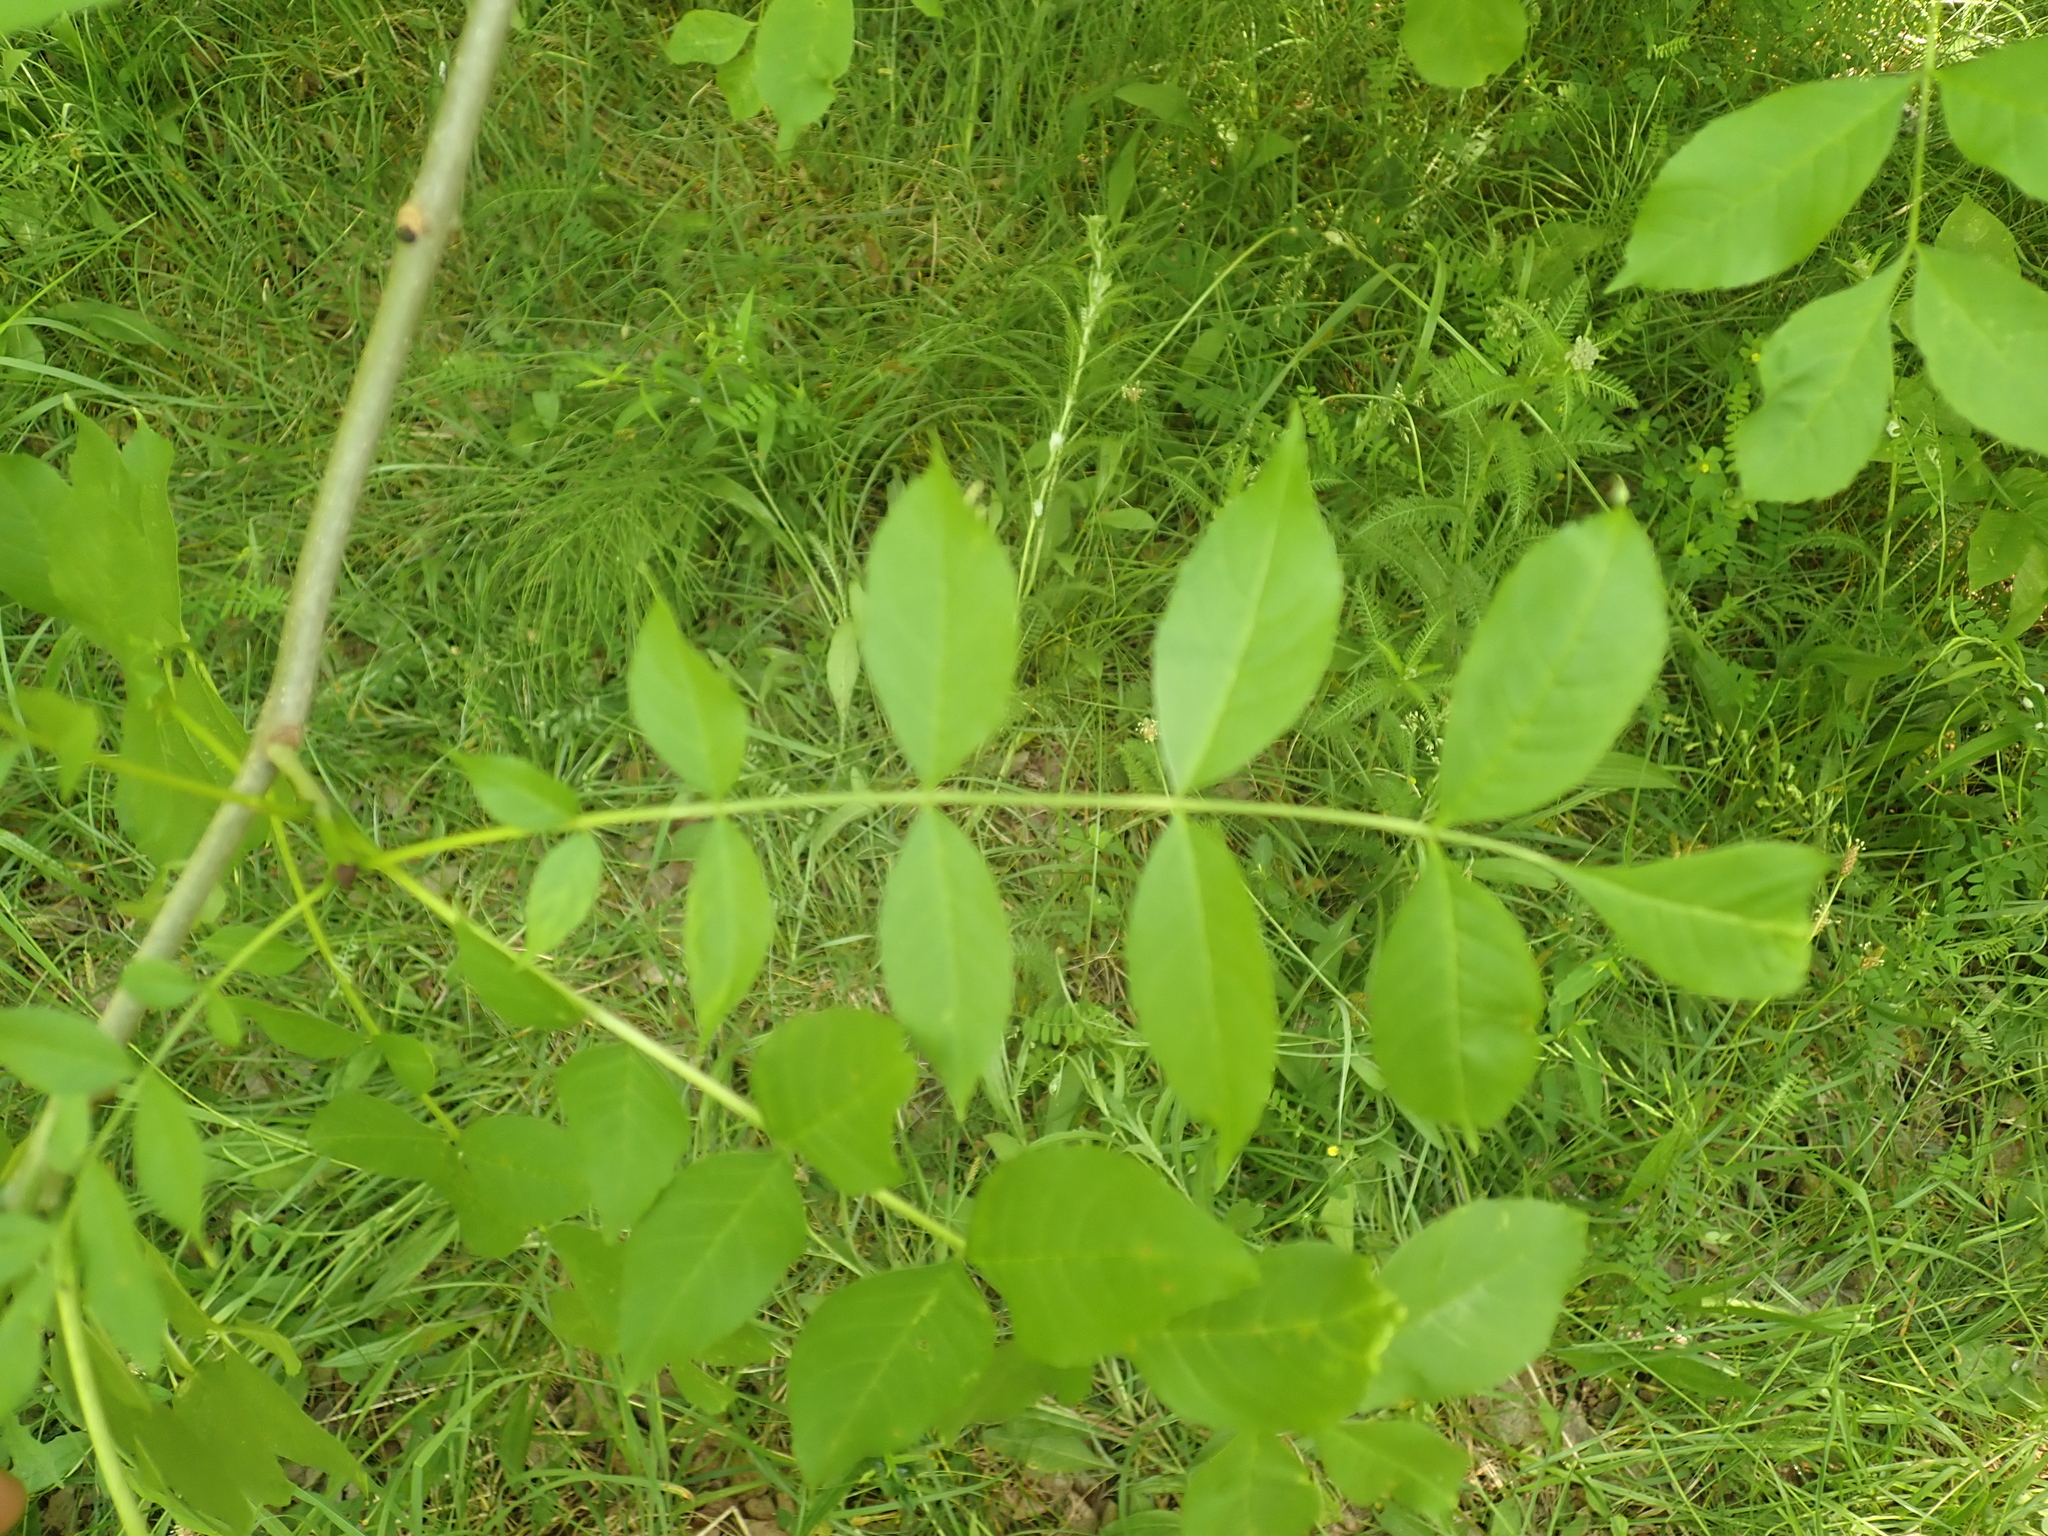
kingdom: Plantae
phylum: Tracheophyta
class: Magnoliopsida
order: Lamiales
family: Oleaceae
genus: Fraxinus
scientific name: Fraxinus excelsior
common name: European ash
